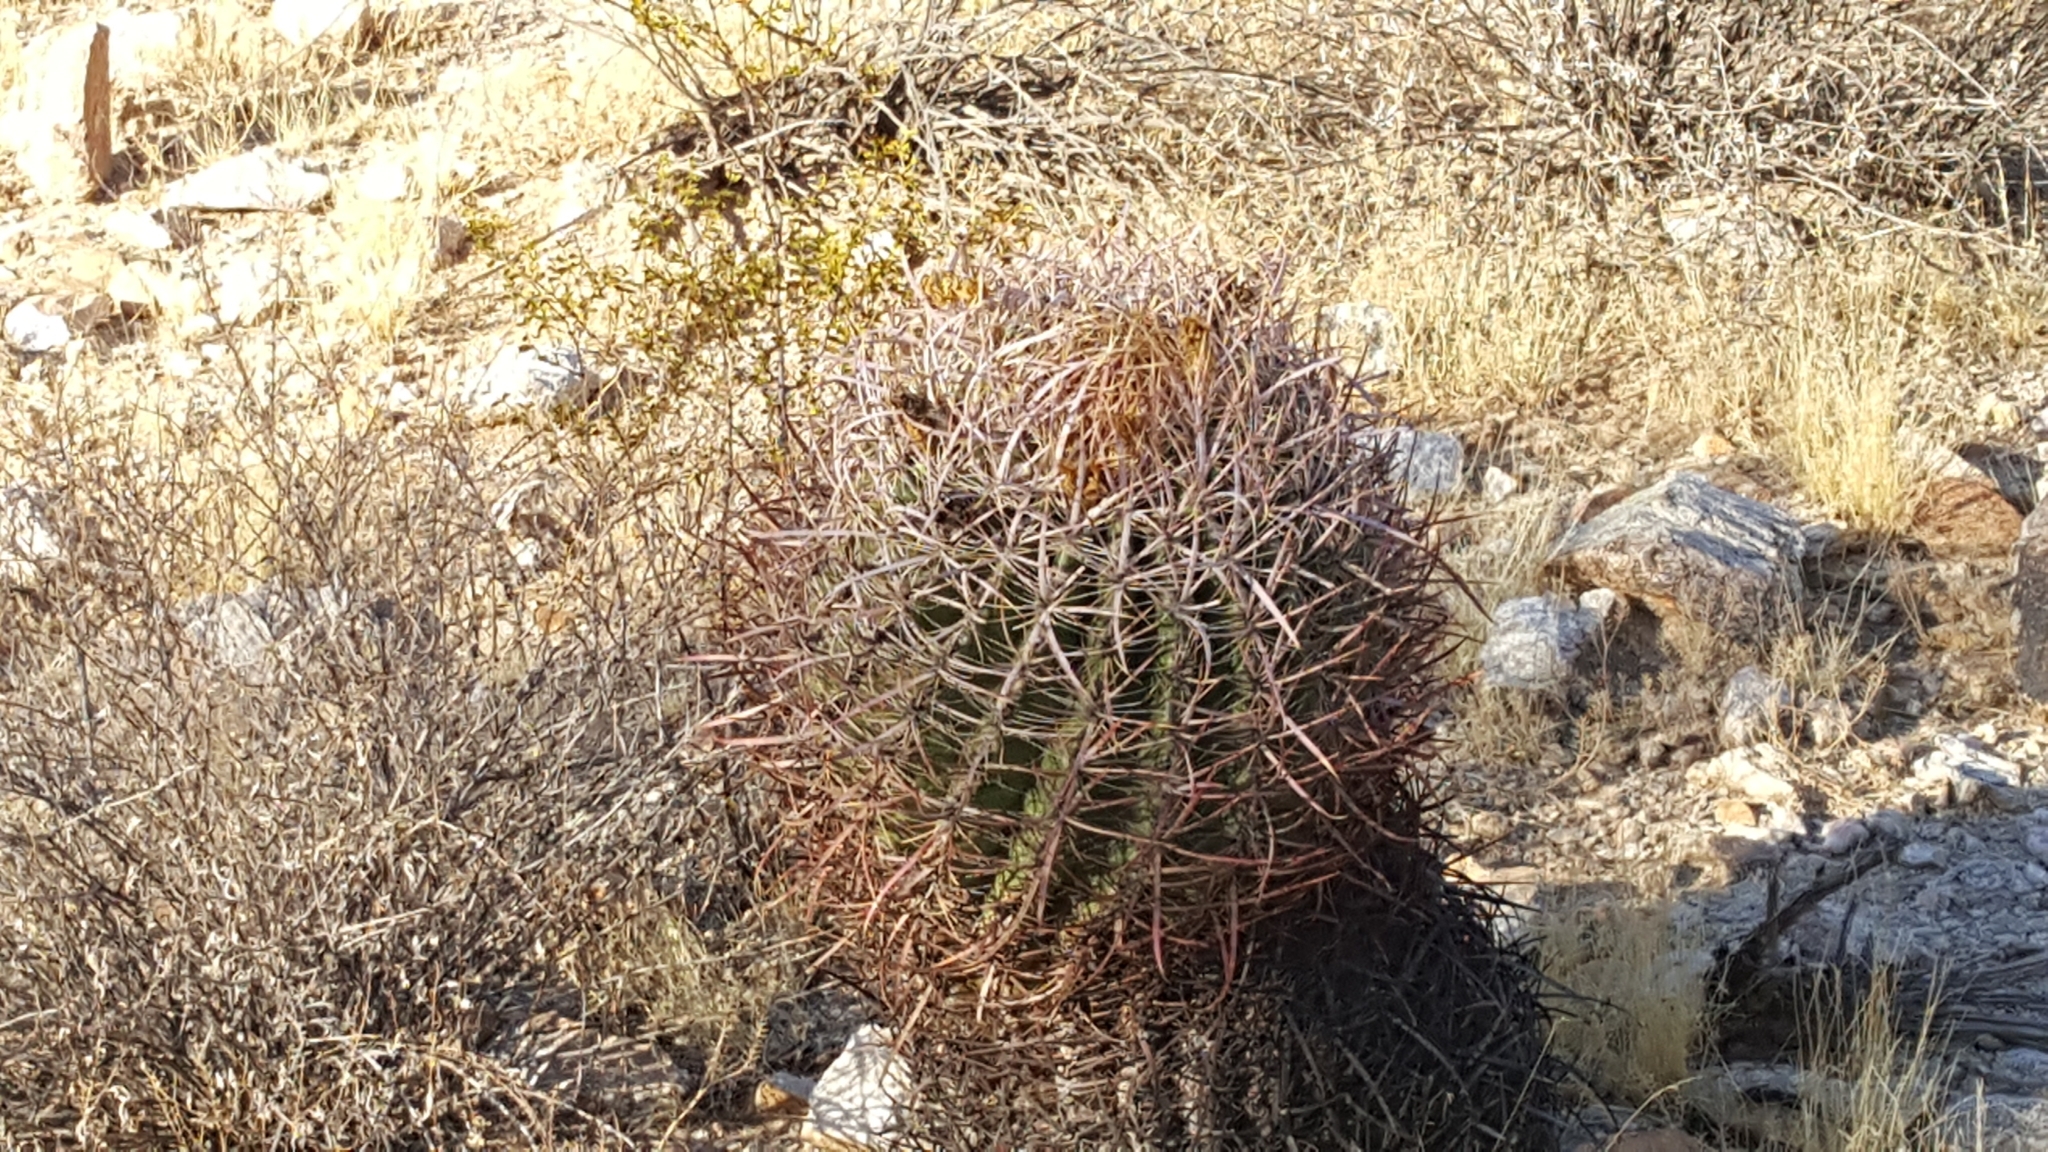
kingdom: Plantae
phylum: Tracheophyta
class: Magnoliopsida
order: Caryophyllales
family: Cactaceae
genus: Ferocactus
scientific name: Ferocactus wislizeni
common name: Candy barrel cactus
